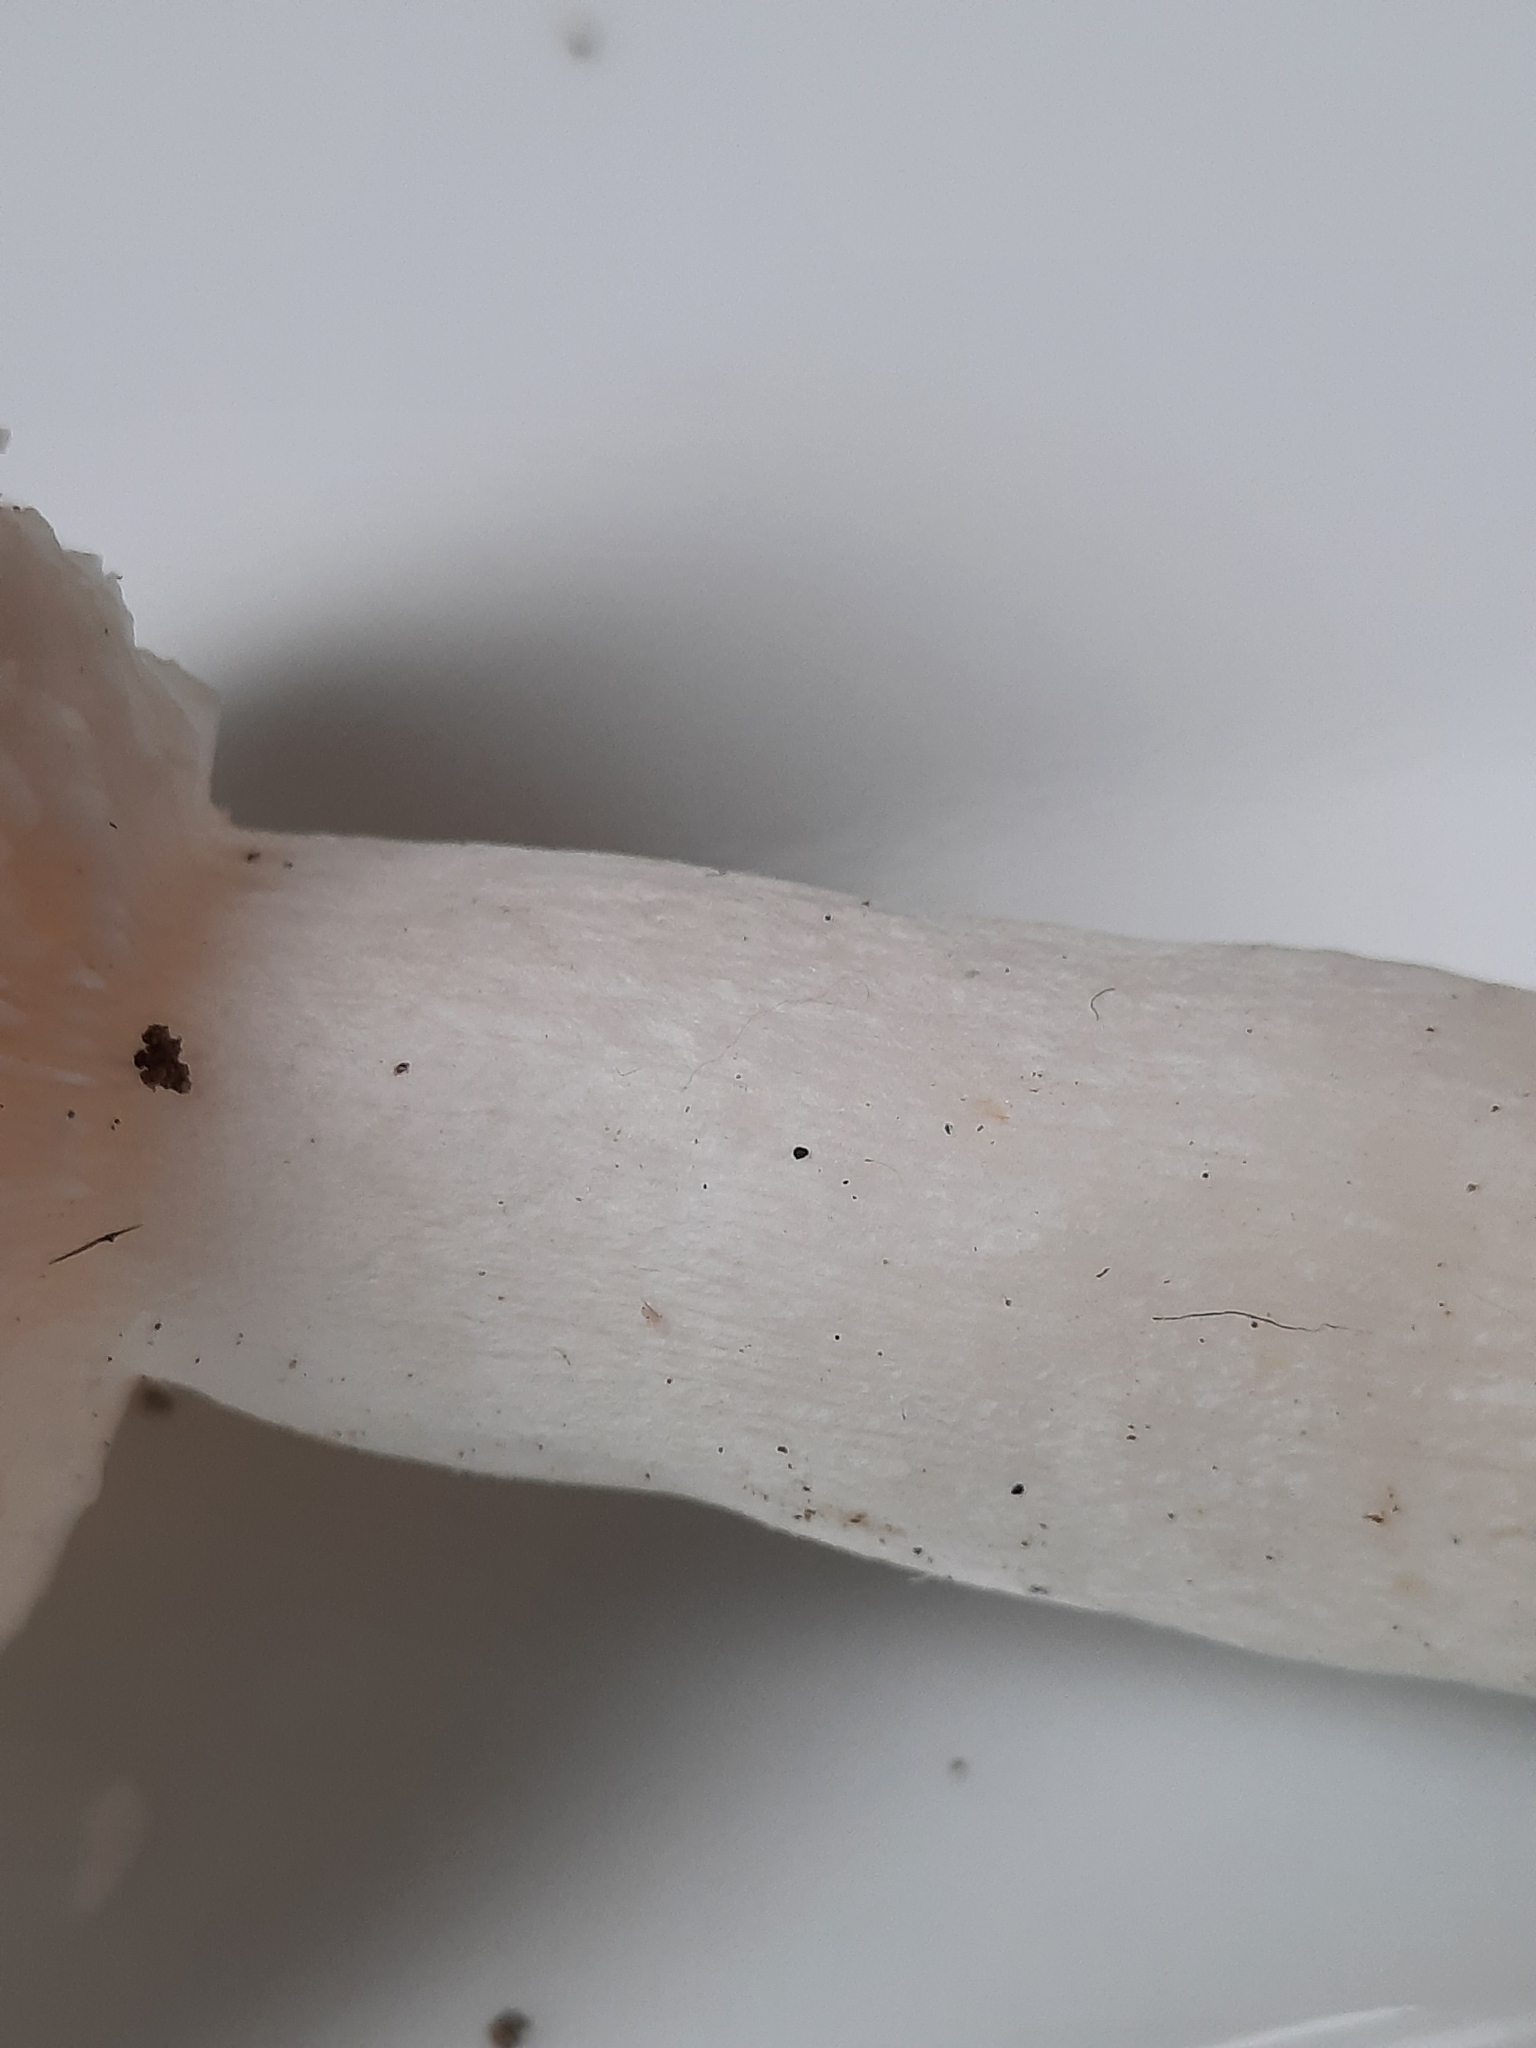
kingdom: Fungi
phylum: Basidiomycota
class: Agaricomycetes
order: Russulales
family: Russulaceae
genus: Russula
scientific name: Russula
